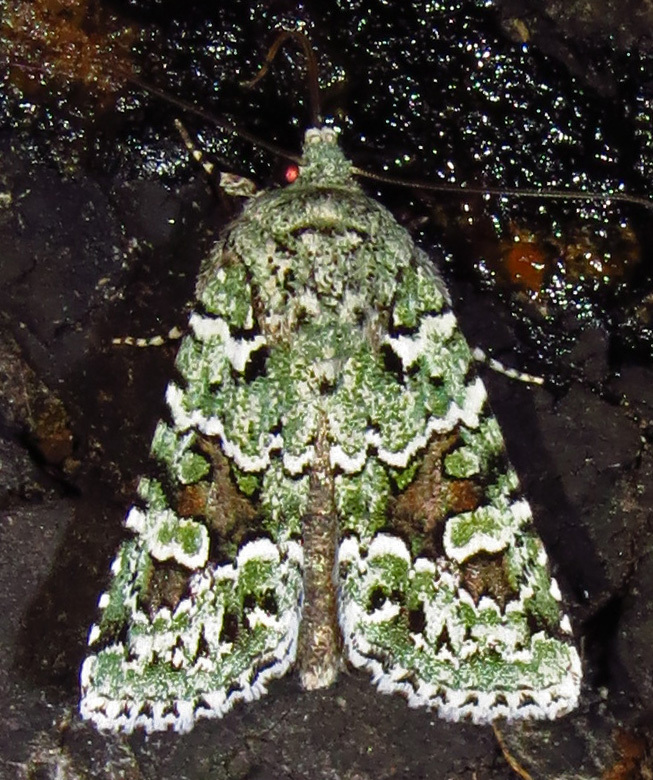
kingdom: Animalia
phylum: Arthropoda
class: Insecta
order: Lepidoptera
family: Noctuidae
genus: Lacinipolia
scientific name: Lacinipolia laudabilis
